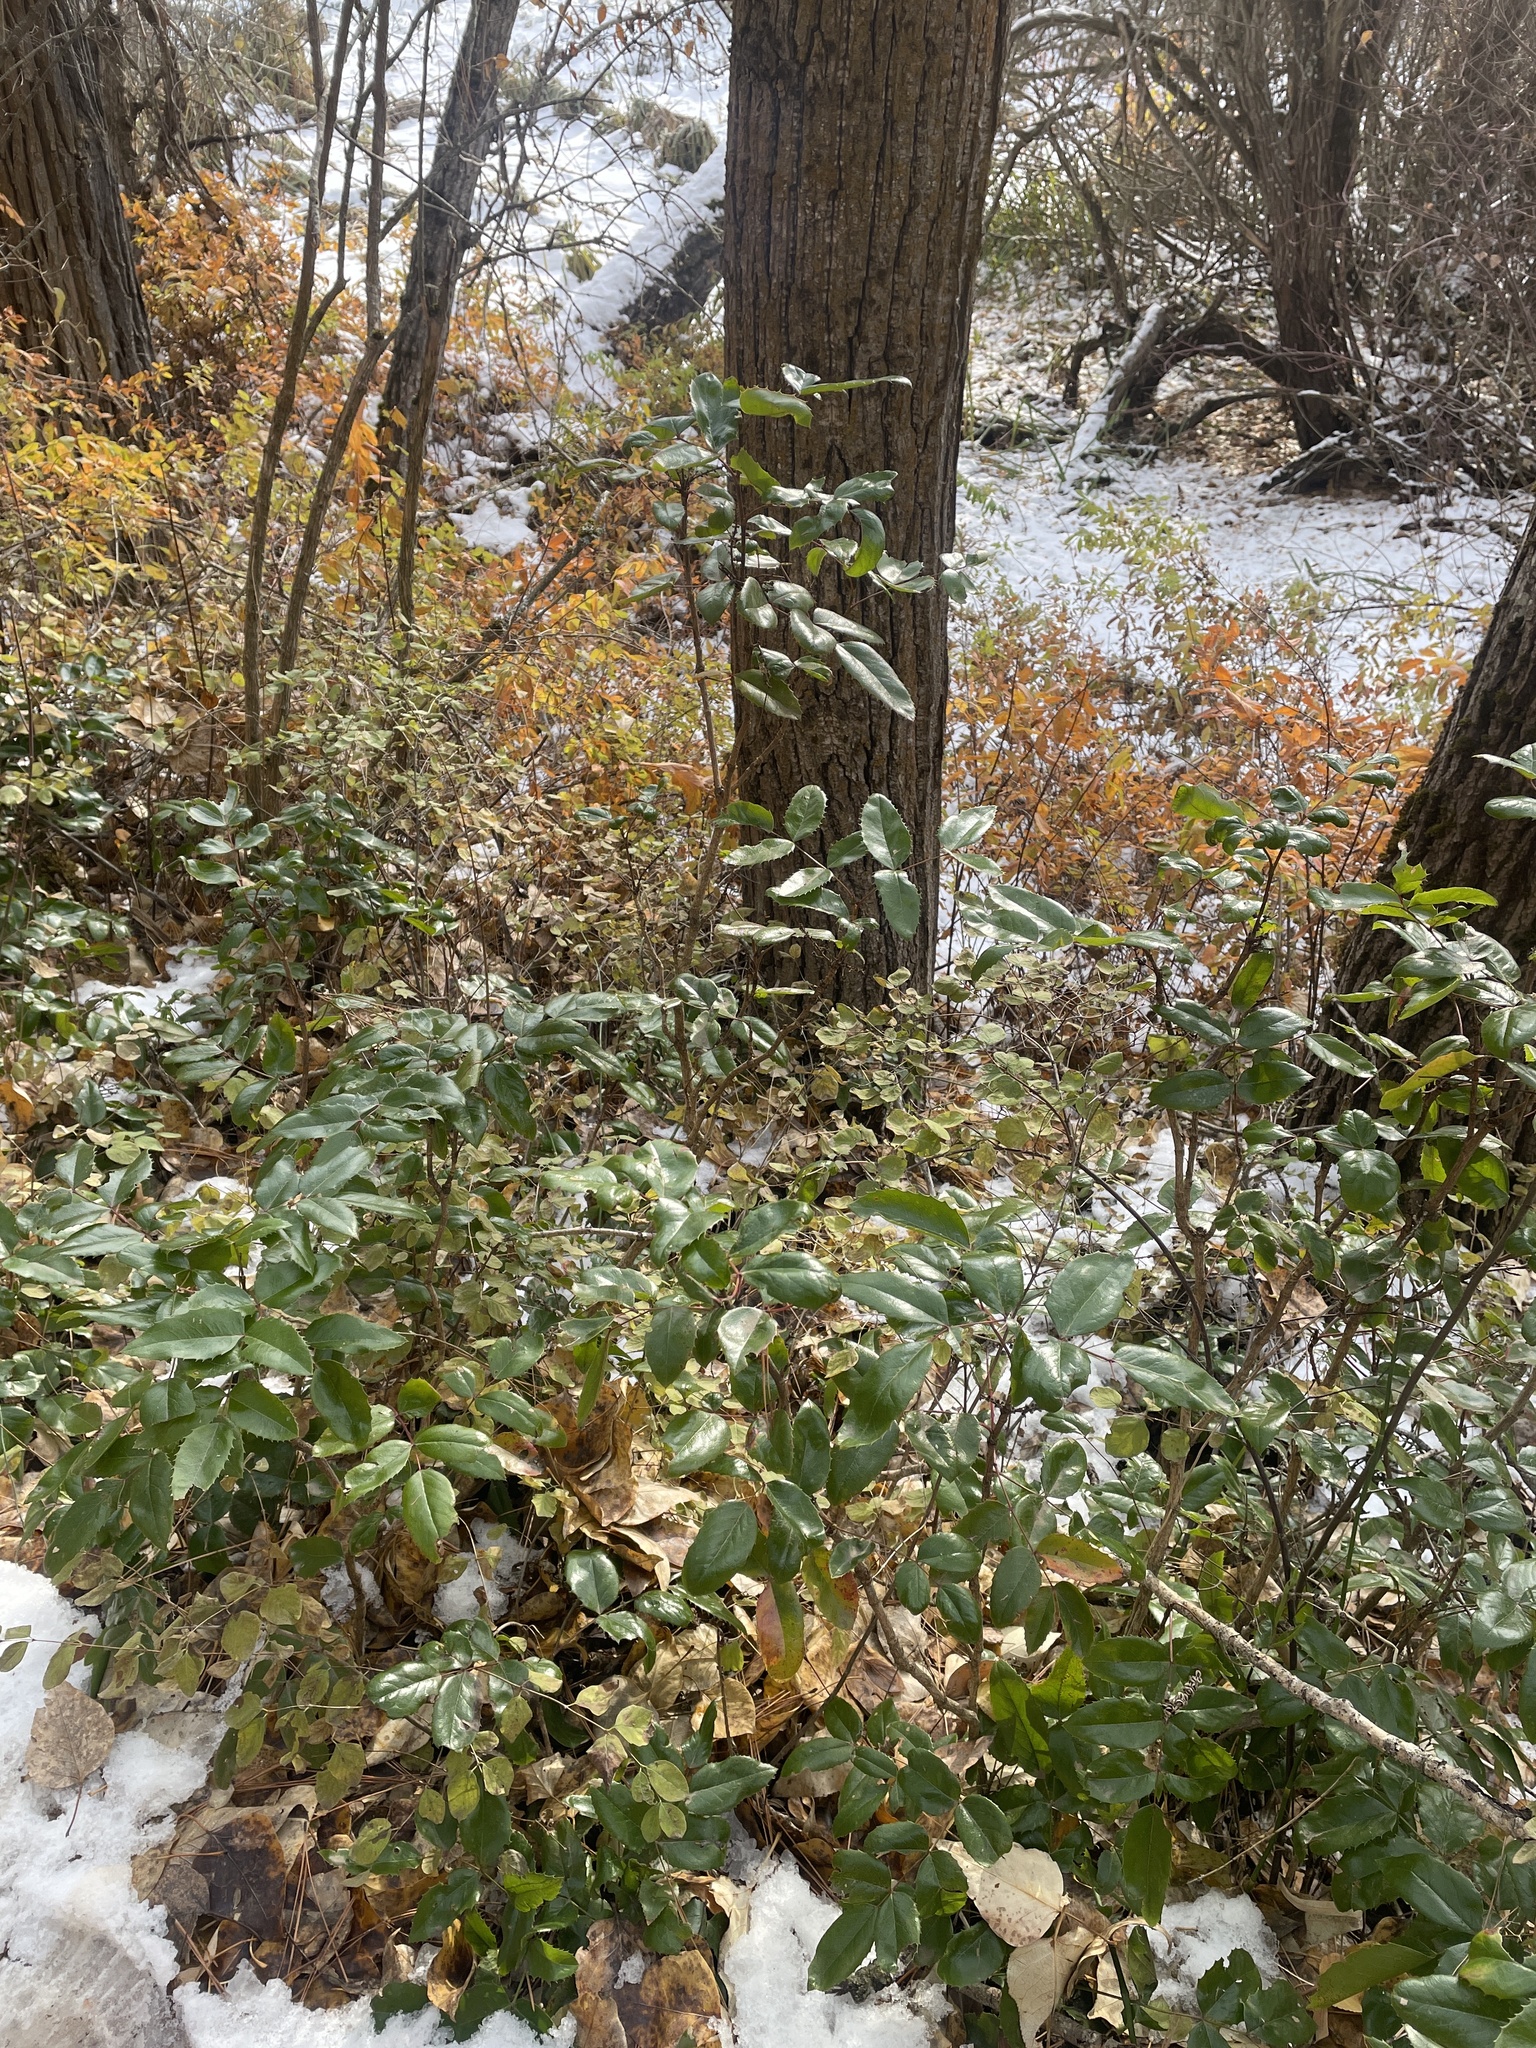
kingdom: Plantae
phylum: Tracheophyta
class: Magnoliopsida
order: Ranunculales
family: Berberidaceae
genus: Mahonia
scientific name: Mahonia aquifolium
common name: Oregon-grape
